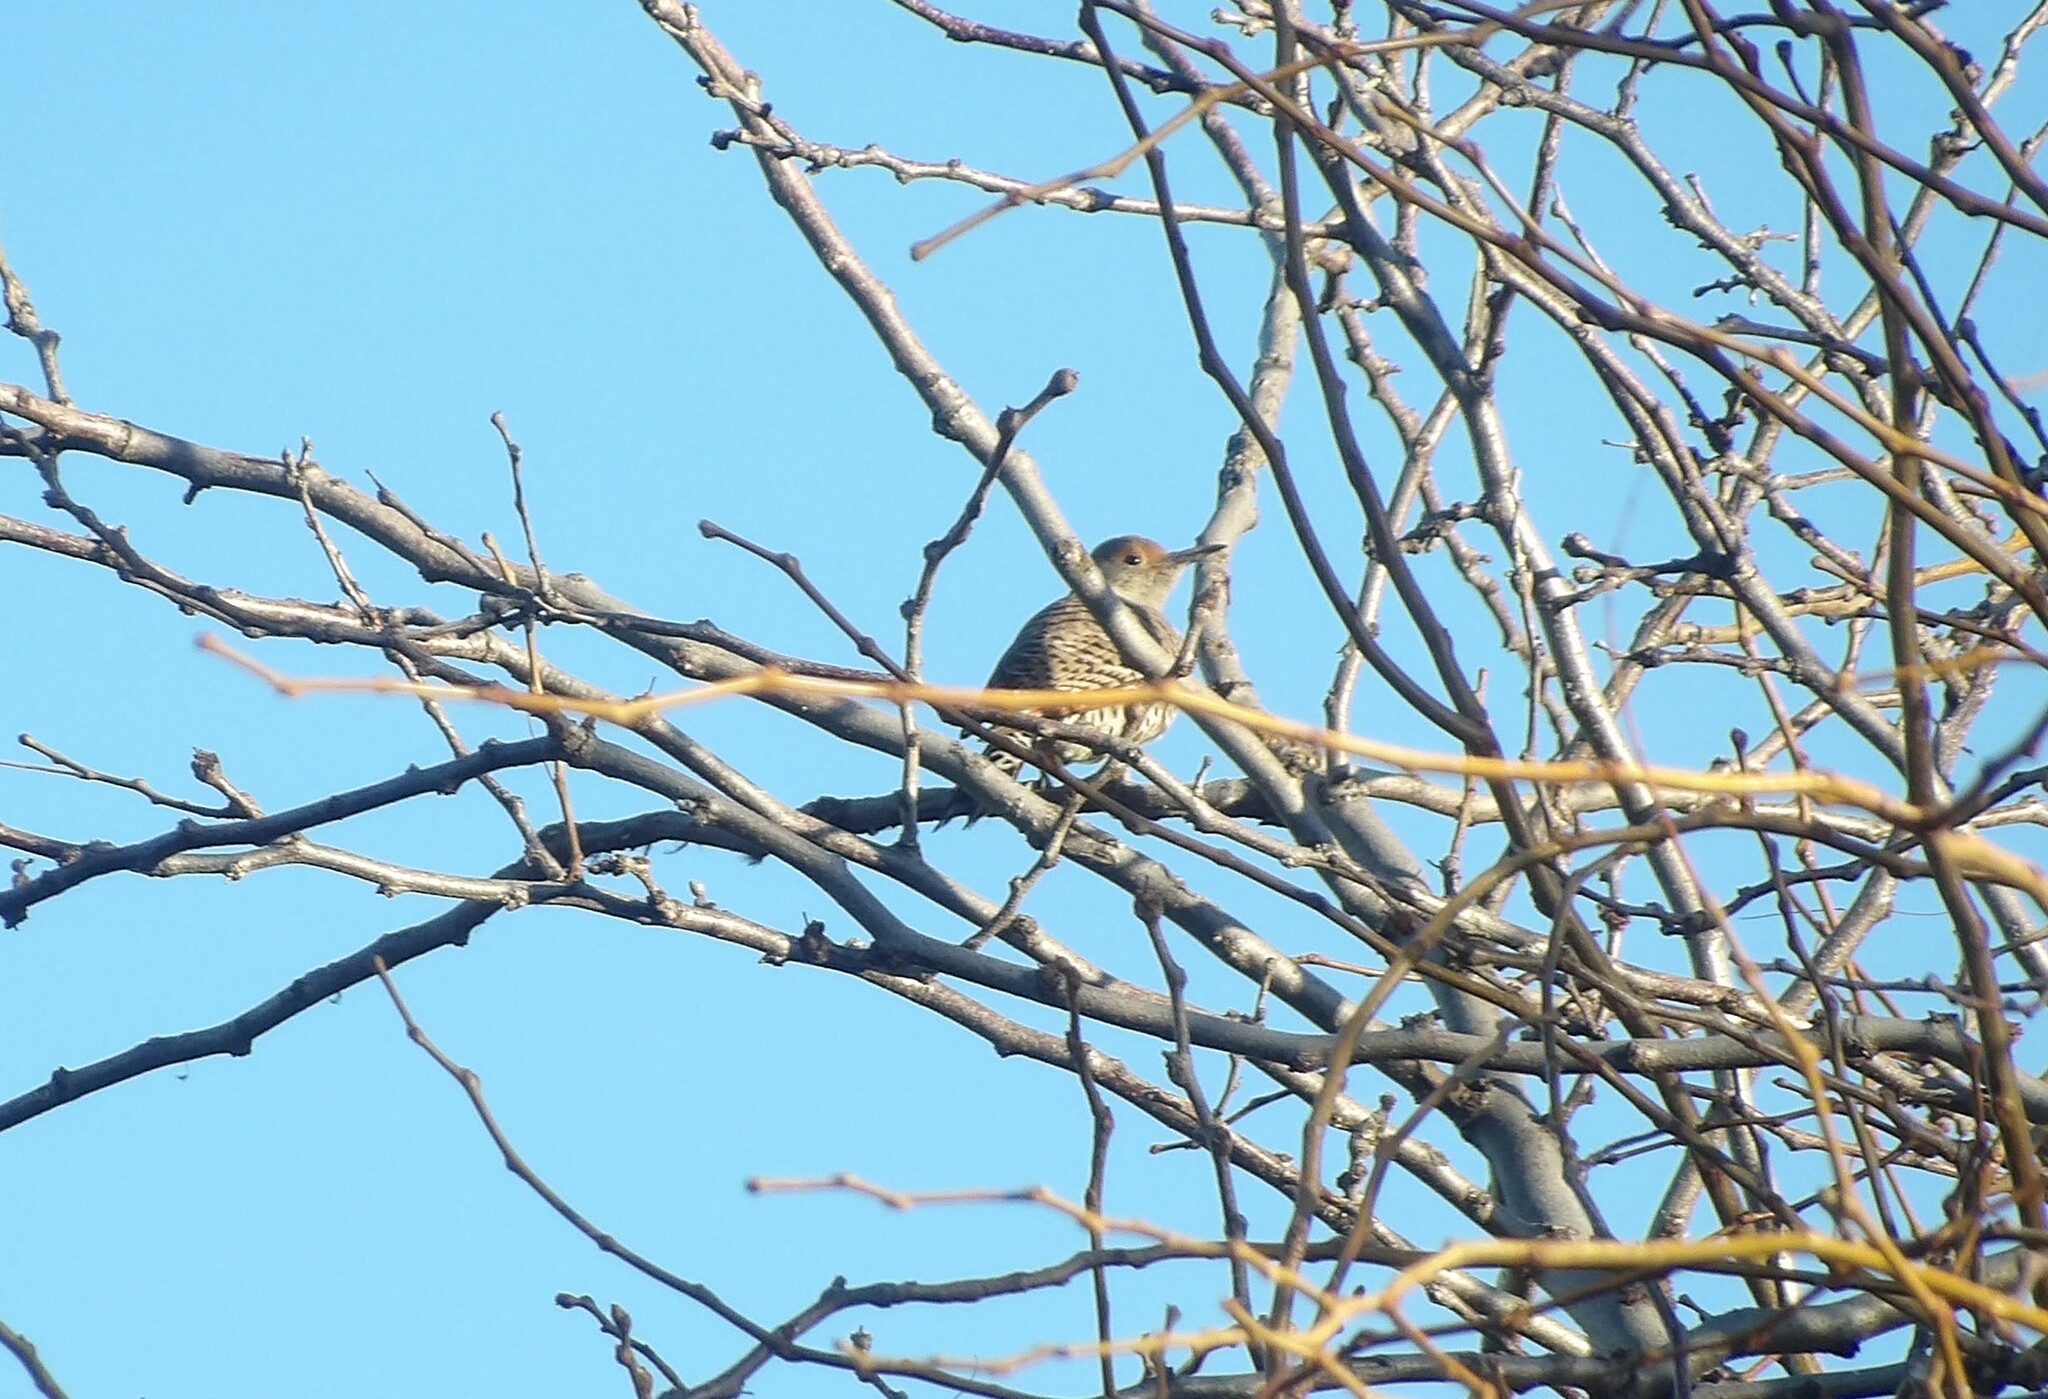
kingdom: Animalia
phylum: Chordata
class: Aves
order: Piciformes
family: Picidae
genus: Colaptes
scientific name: Colaptes auratus
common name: Northern flicker
